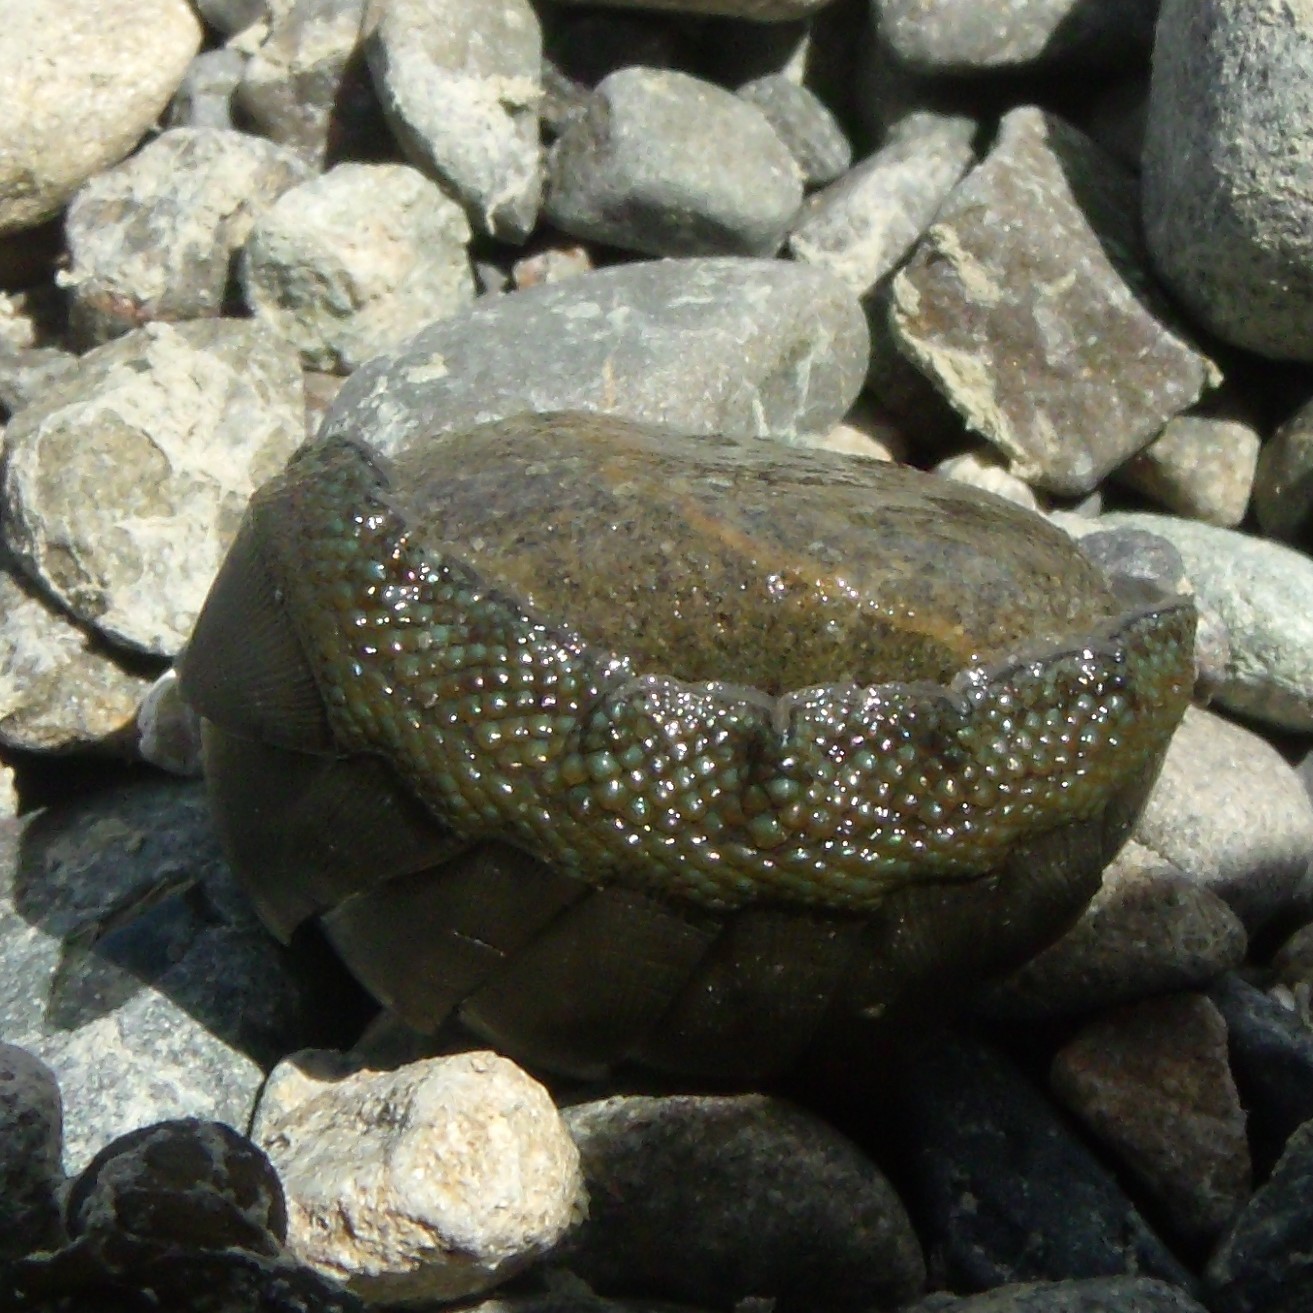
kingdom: Animalia
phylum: Mollusca
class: Polyplacophora
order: Chitonida
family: Chitonidae
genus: Chiton
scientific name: Chiton glaucus
